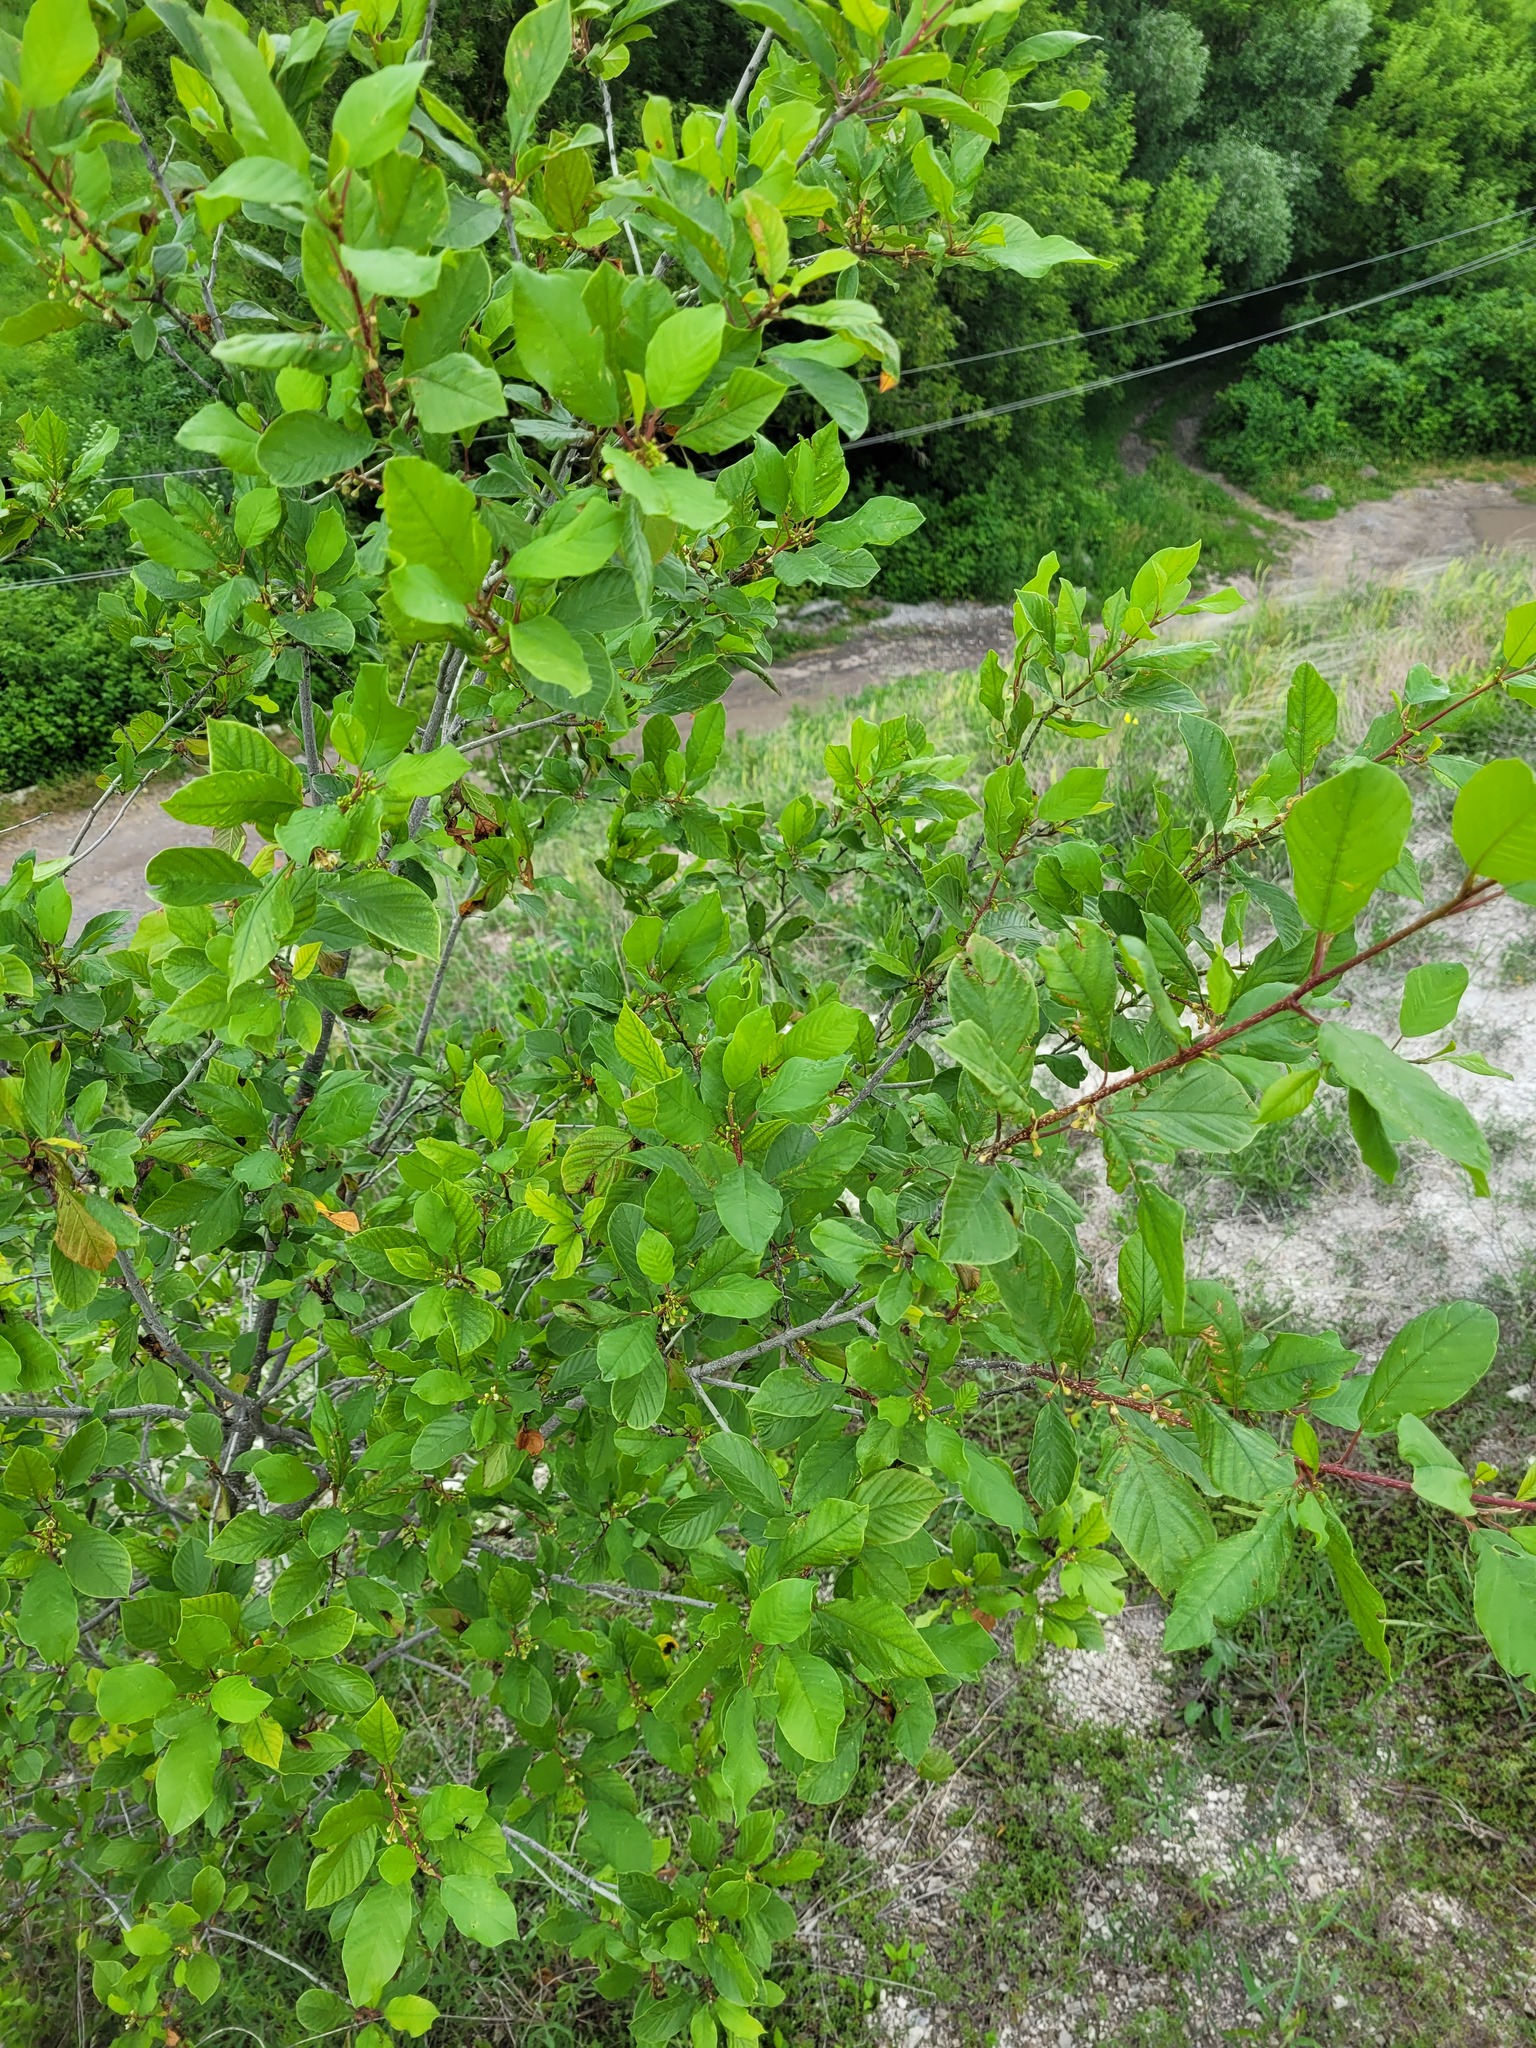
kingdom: Plantae
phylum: Tracheophyta
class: Magnoliopsida
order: Rosales
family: Rhamnaceae
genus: Frangula
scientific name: Frangula alnus
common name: Alder buckthorn
